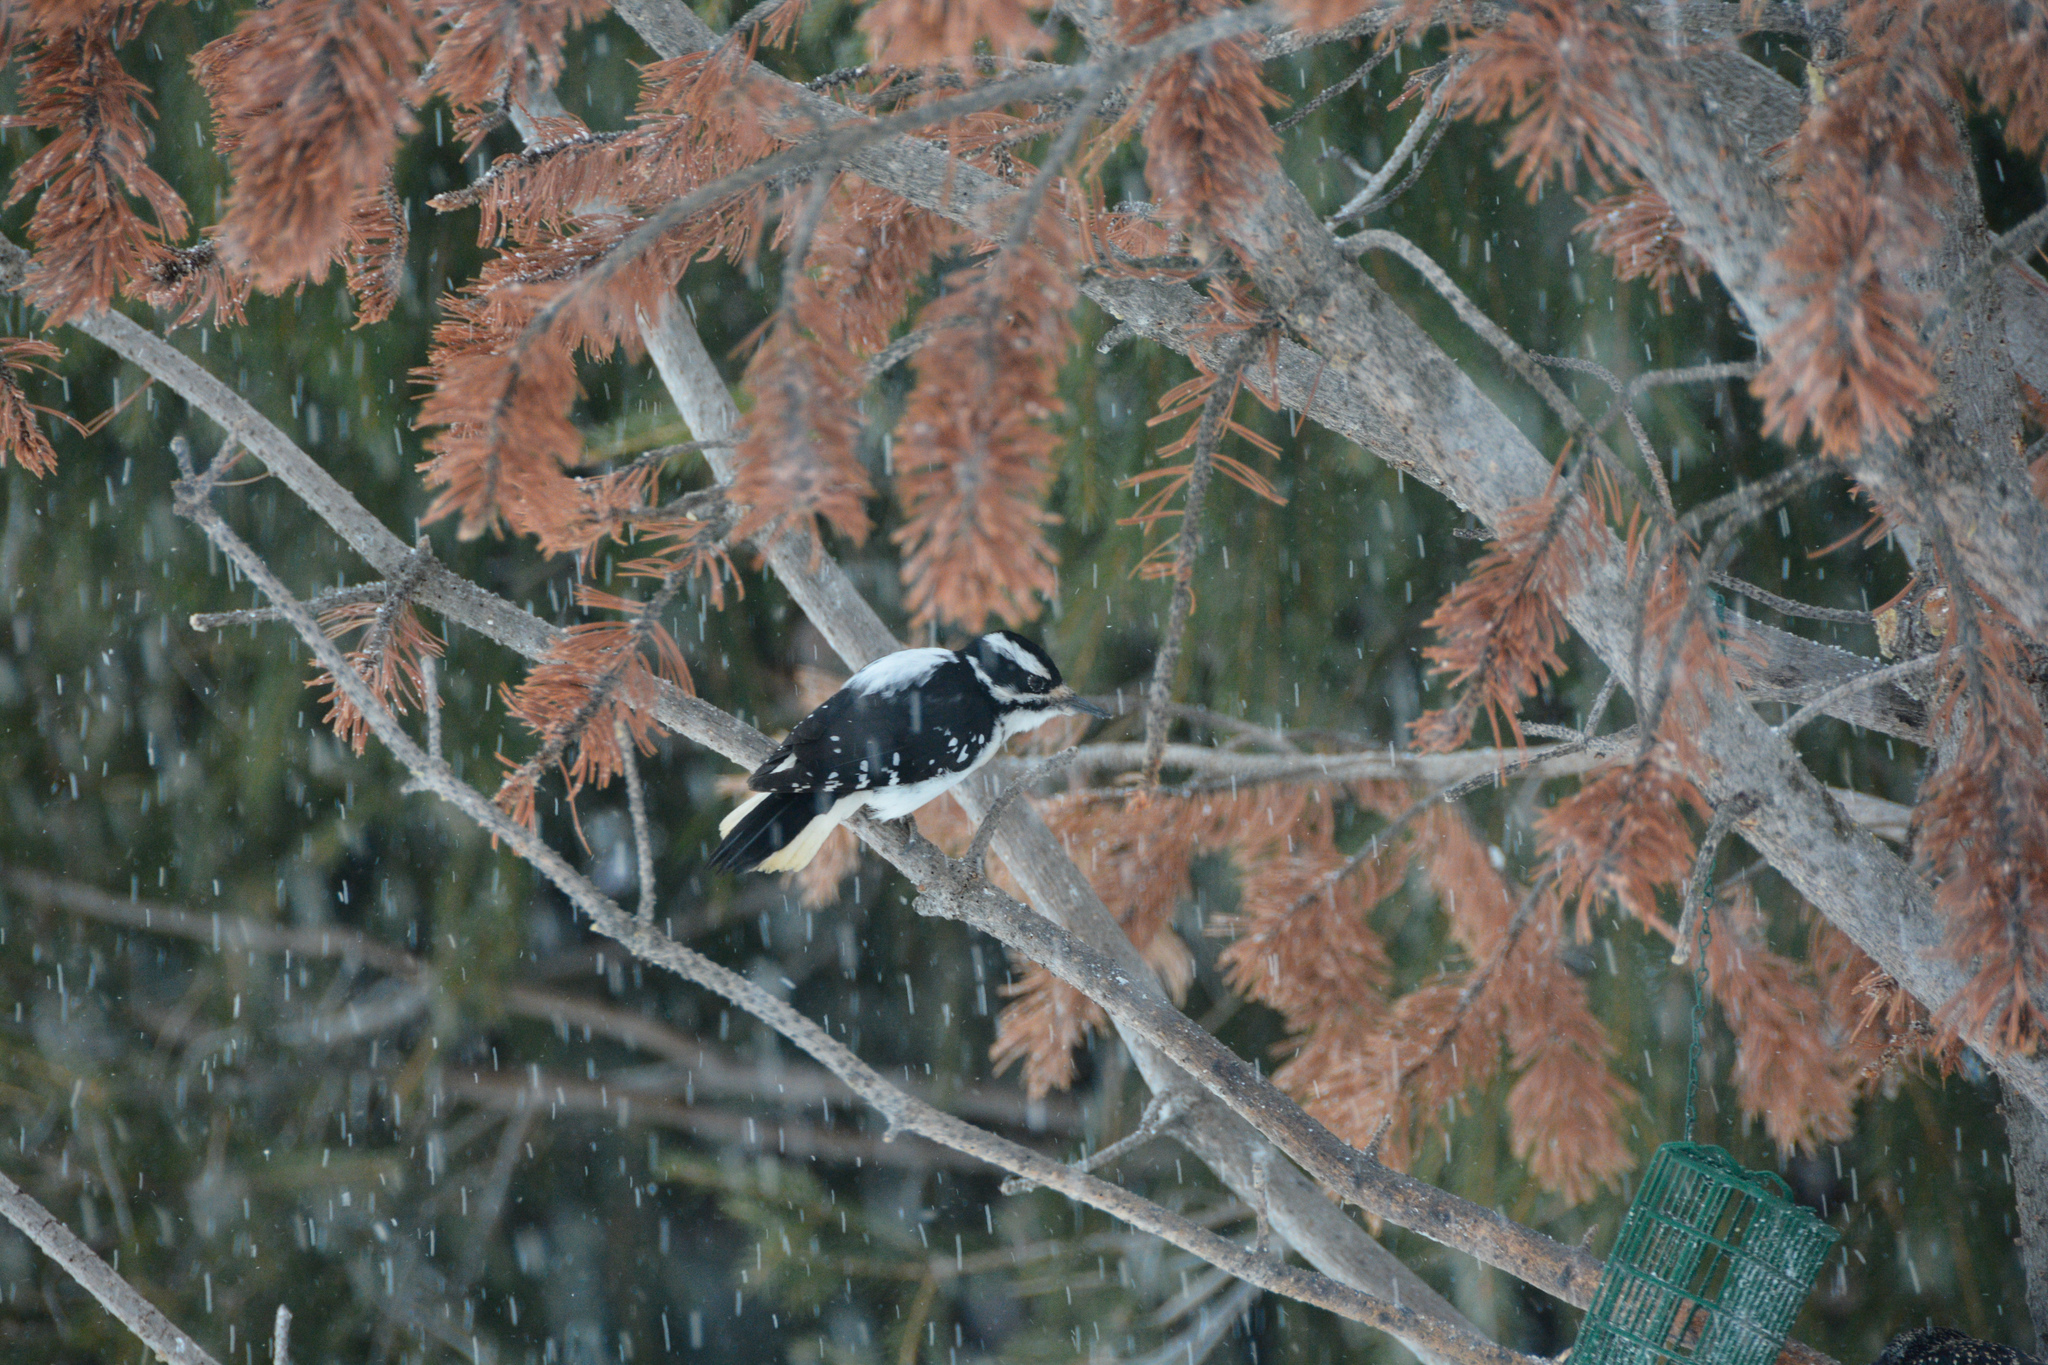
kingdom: Animalia
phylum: Chordata
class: Aves
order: Piciformes
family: Picidae
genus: Leuconotopicus
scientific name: Leuconotopicus villosus
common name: Hairy woodpecker
